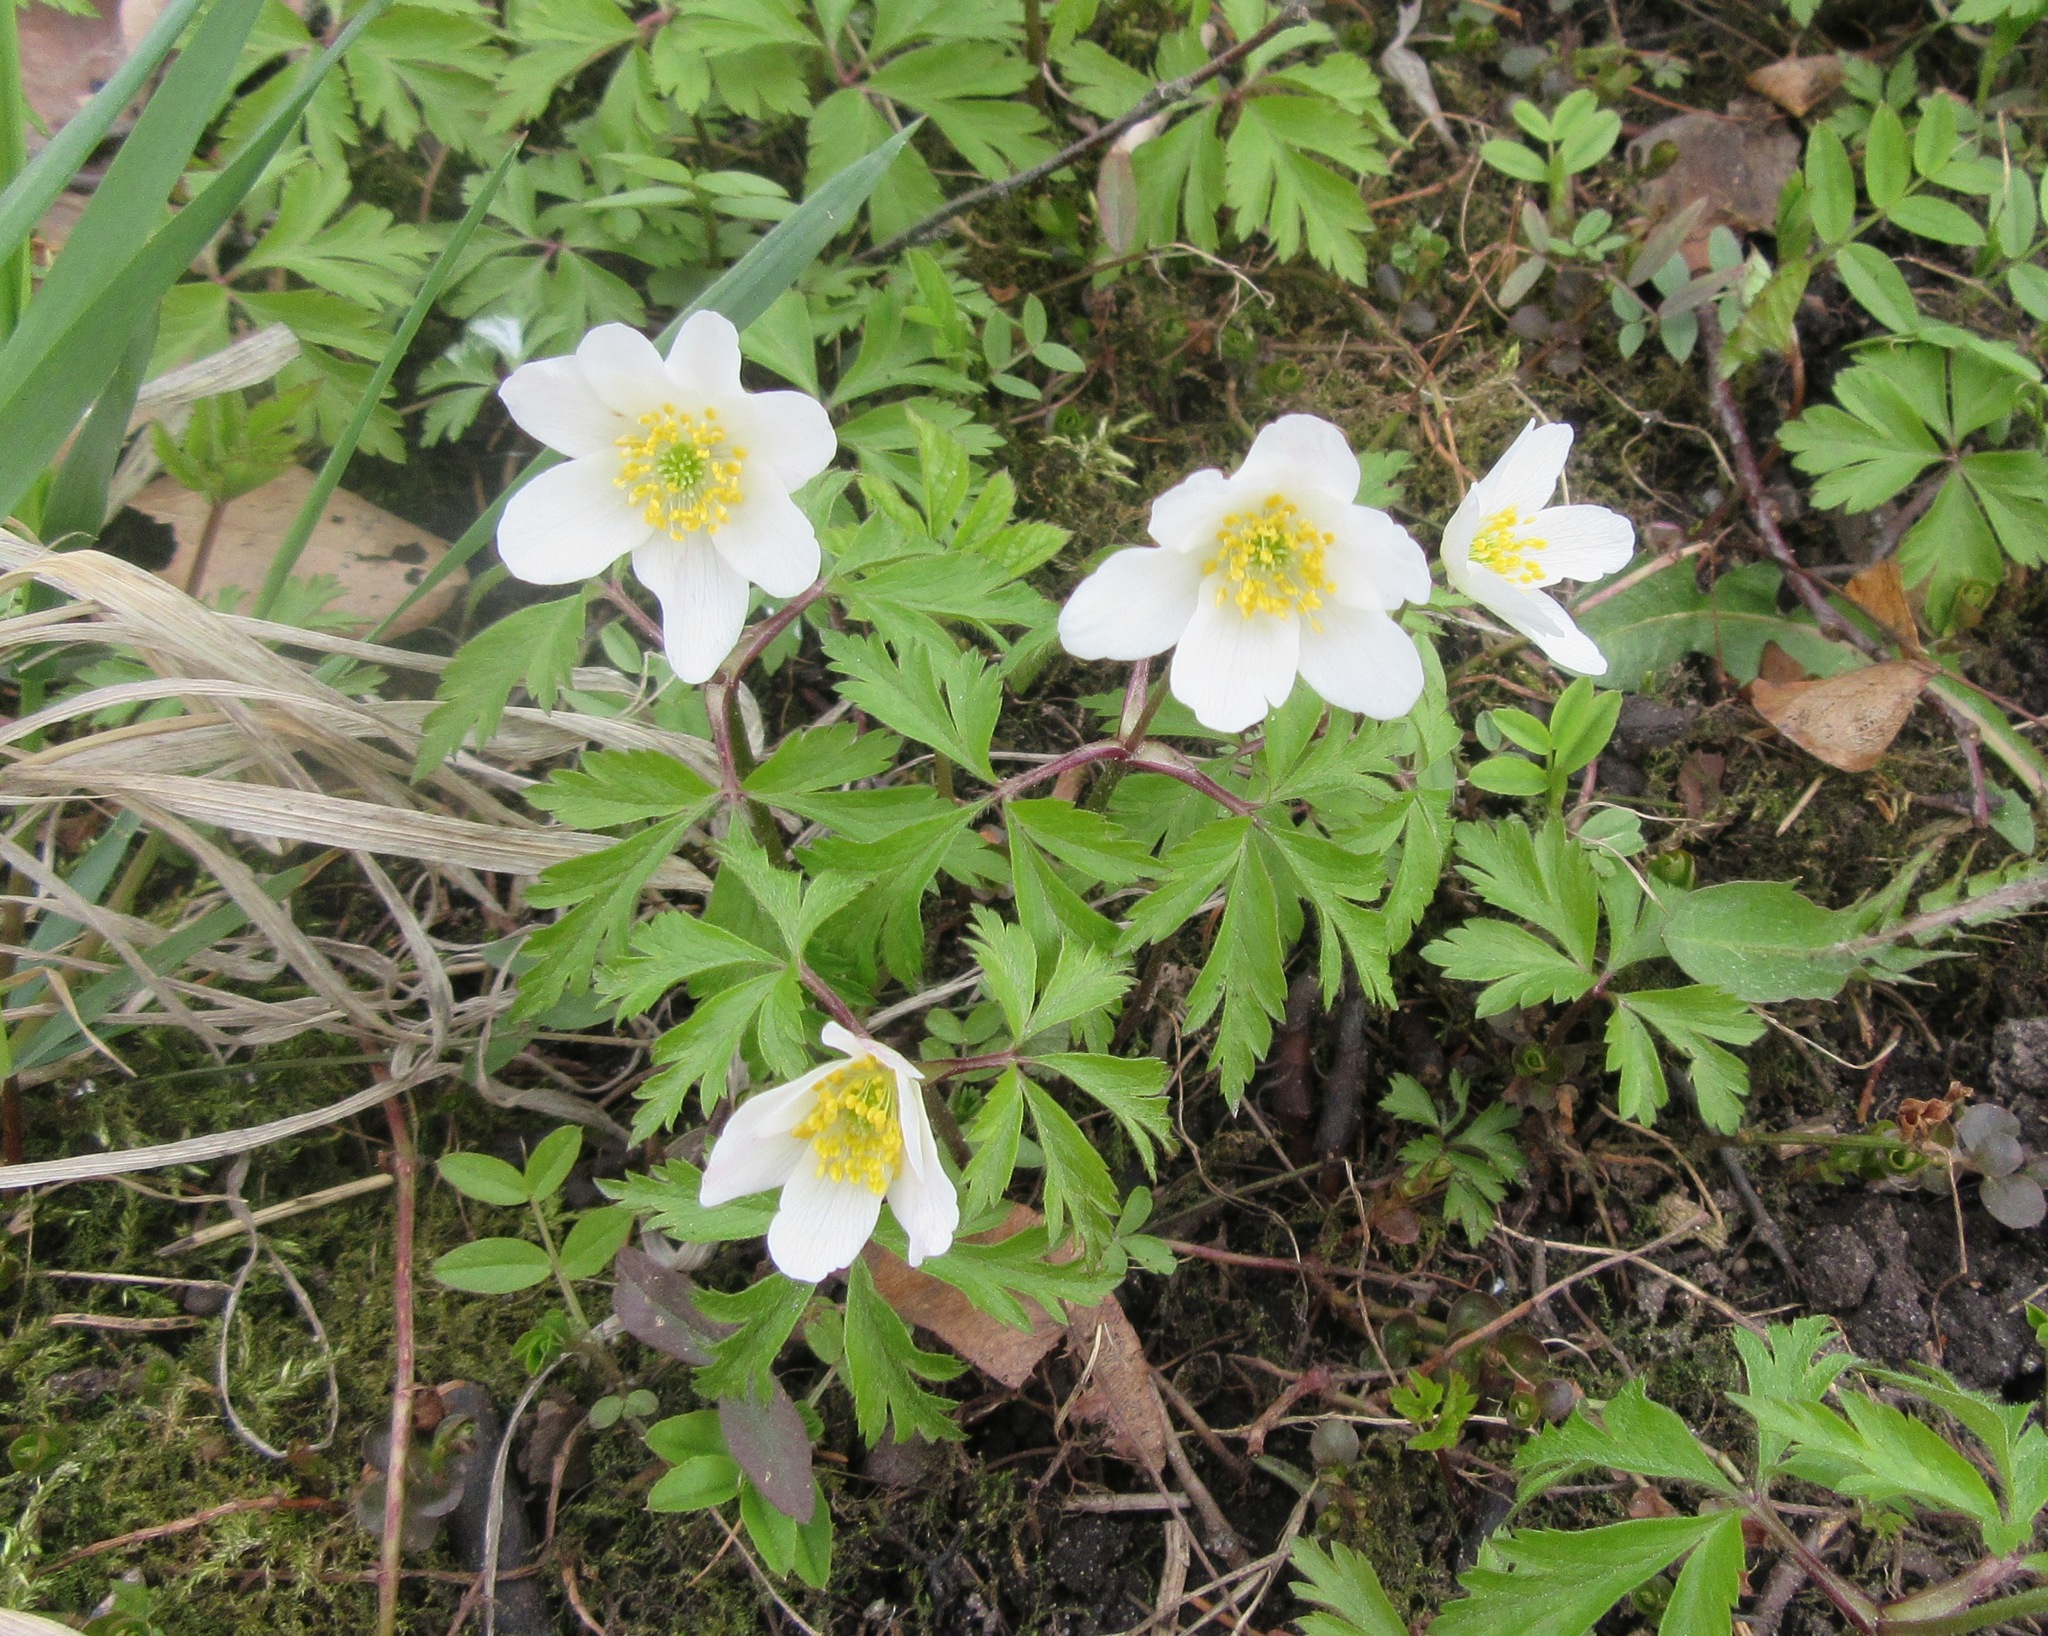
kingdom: Plantae
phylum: Tracheophyta
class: Magnoliopsida
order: Ranunculales
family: Ranunculaceae
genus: Anemone
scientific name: Anemone nemorosa
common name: Wood anemone
